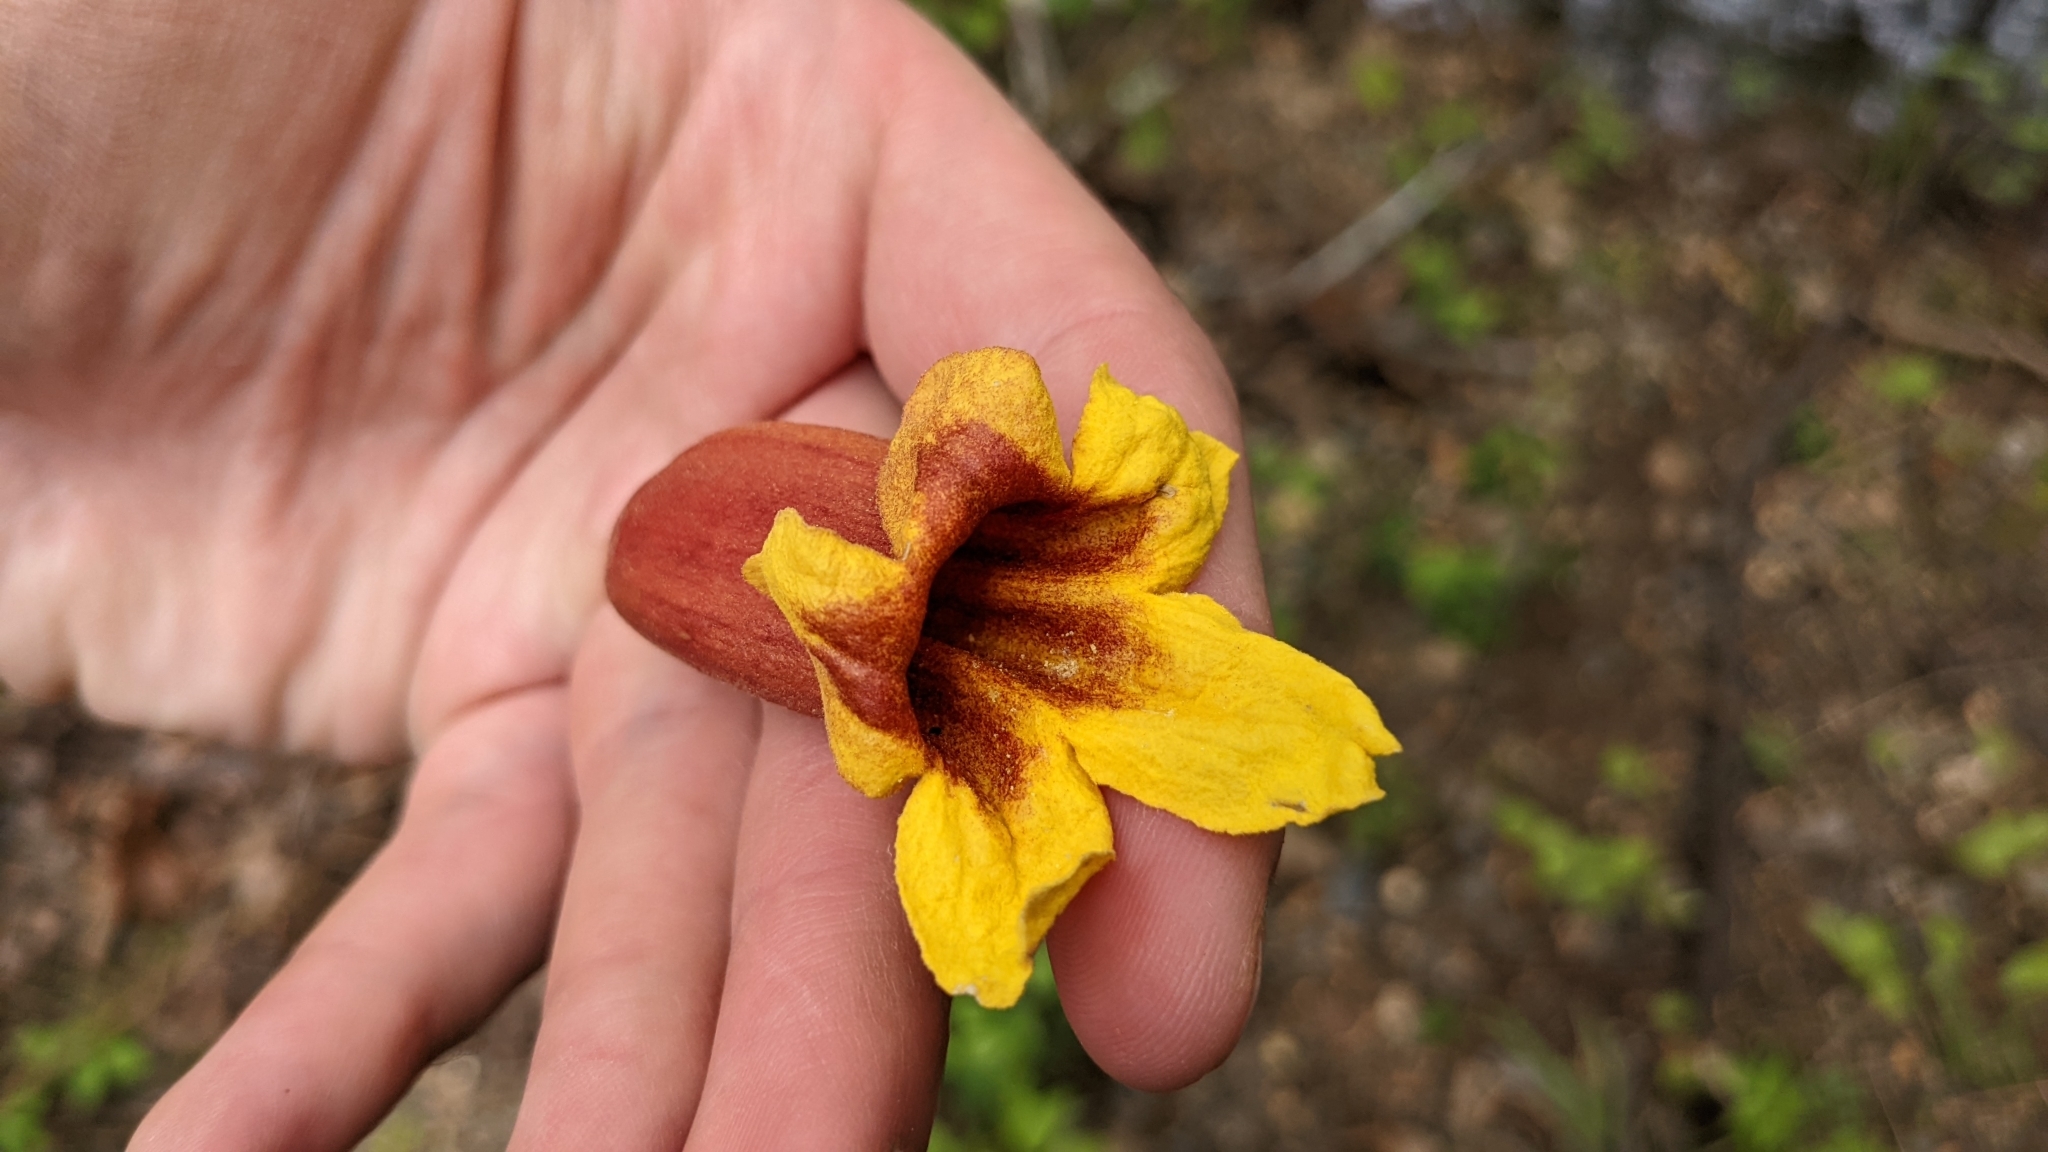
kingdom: Plantae
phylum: Tracheophyta
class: Magnoliopsida
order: Lamiales
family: Bignoniaceae
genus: Bignonia
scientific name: Bignonia capreolata
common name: Crossvine
